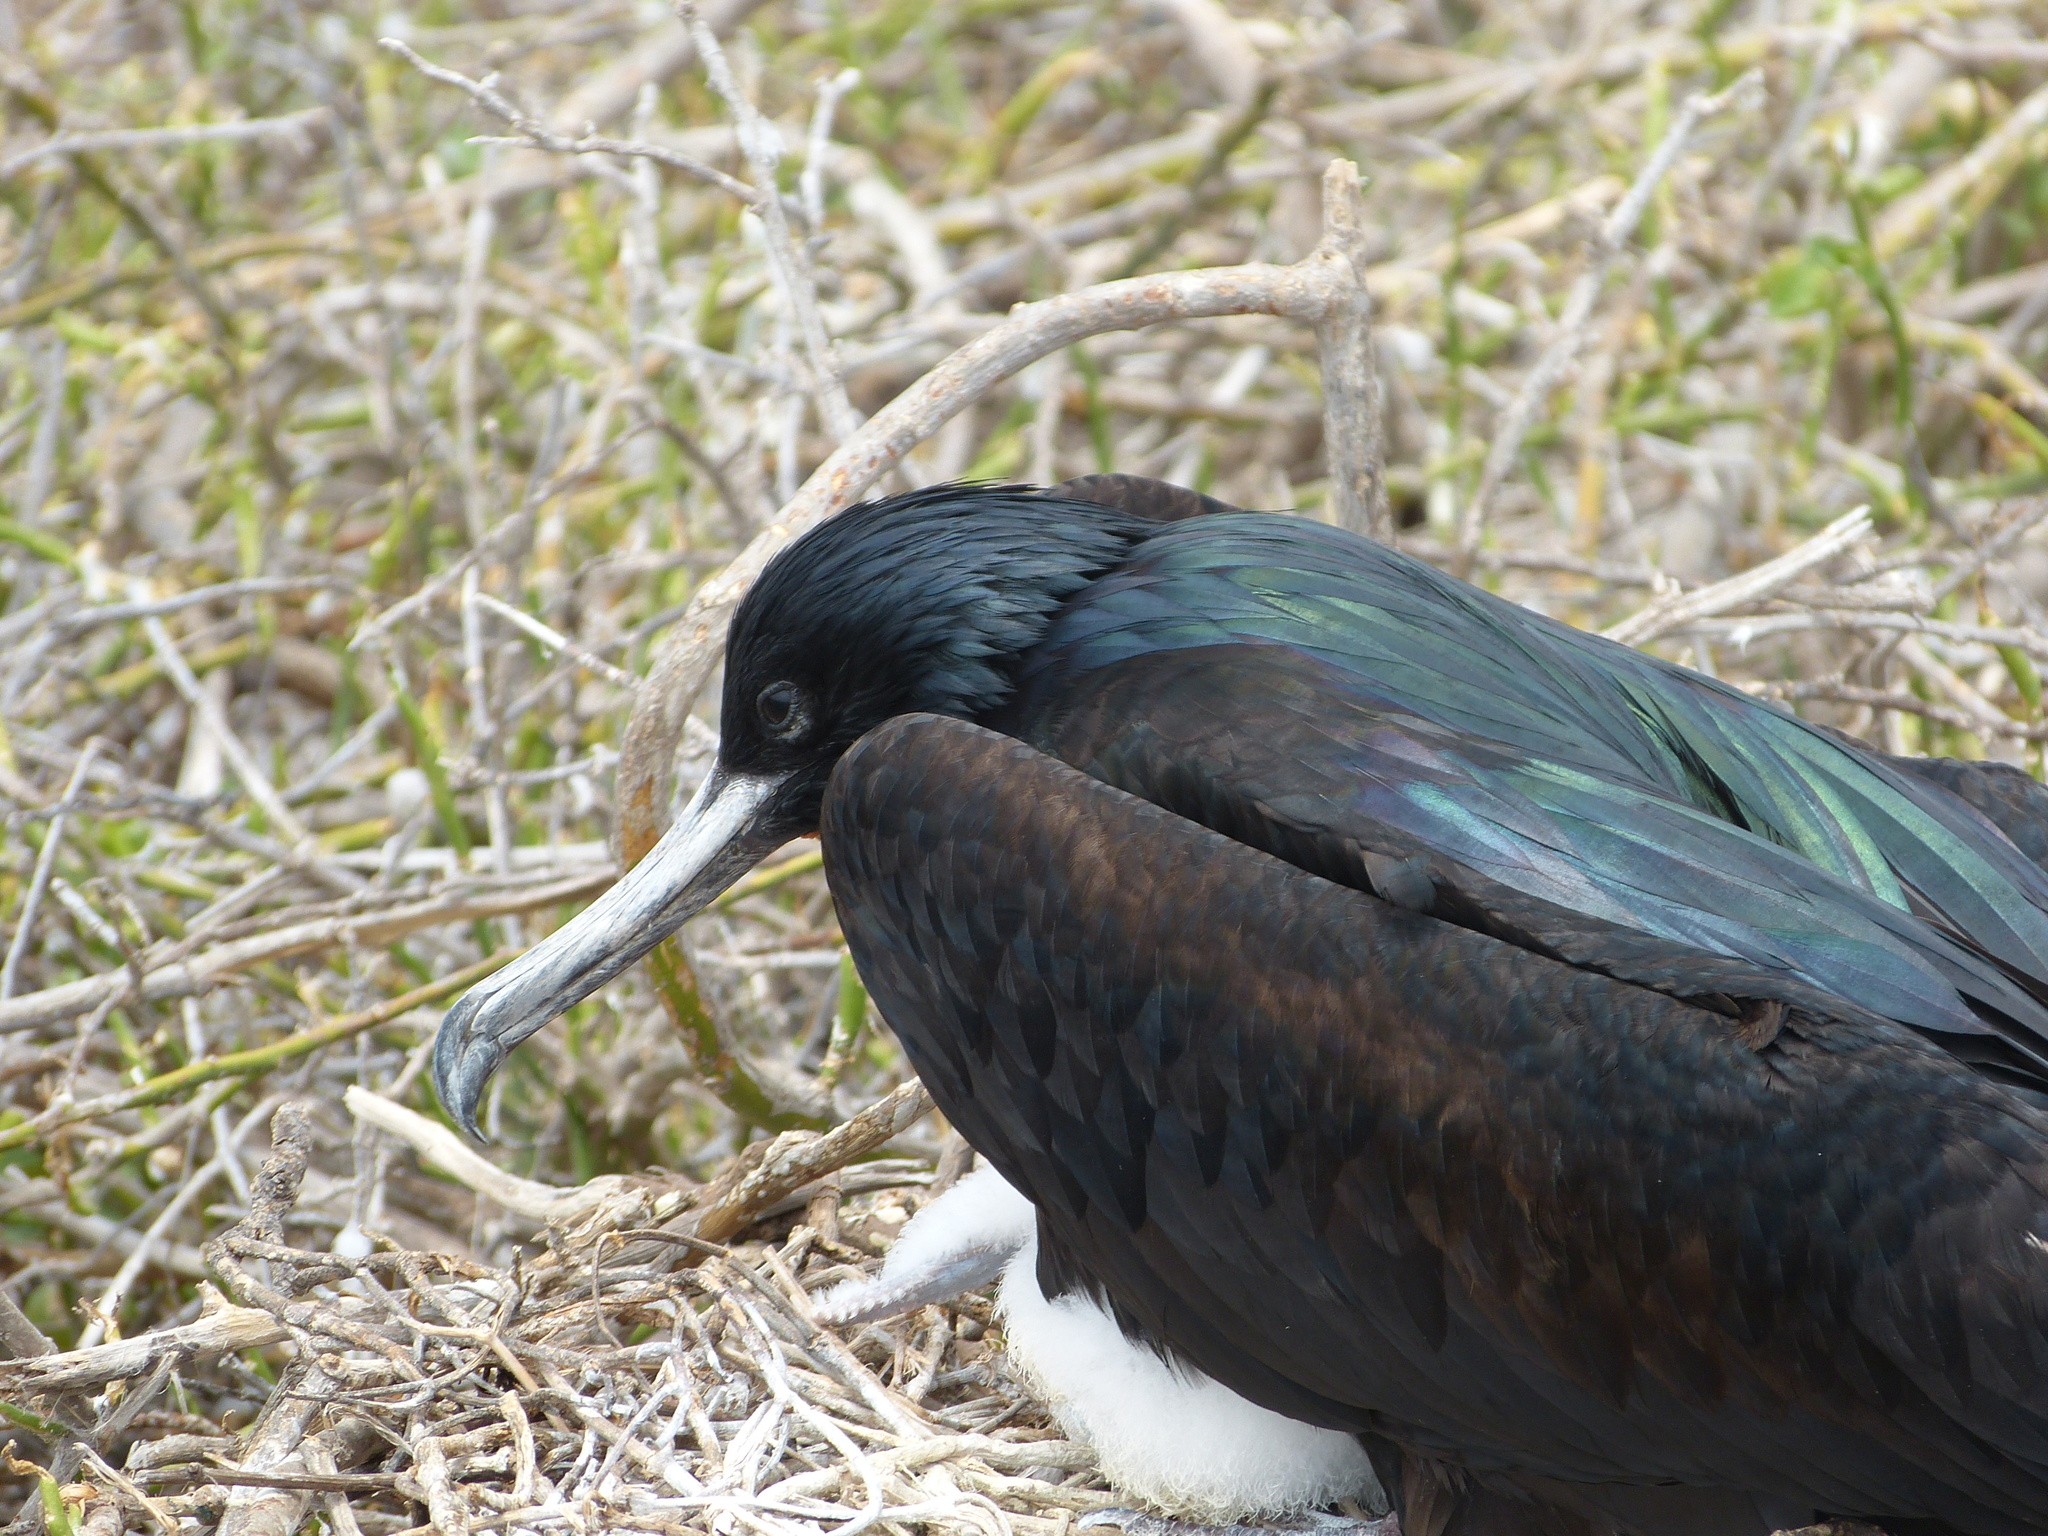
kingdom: Animalia
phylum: Chordata
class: Aves
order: Suliformes
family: Fregatidae
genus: Fregata
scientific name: Fregata minor
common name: Great frigatebird
